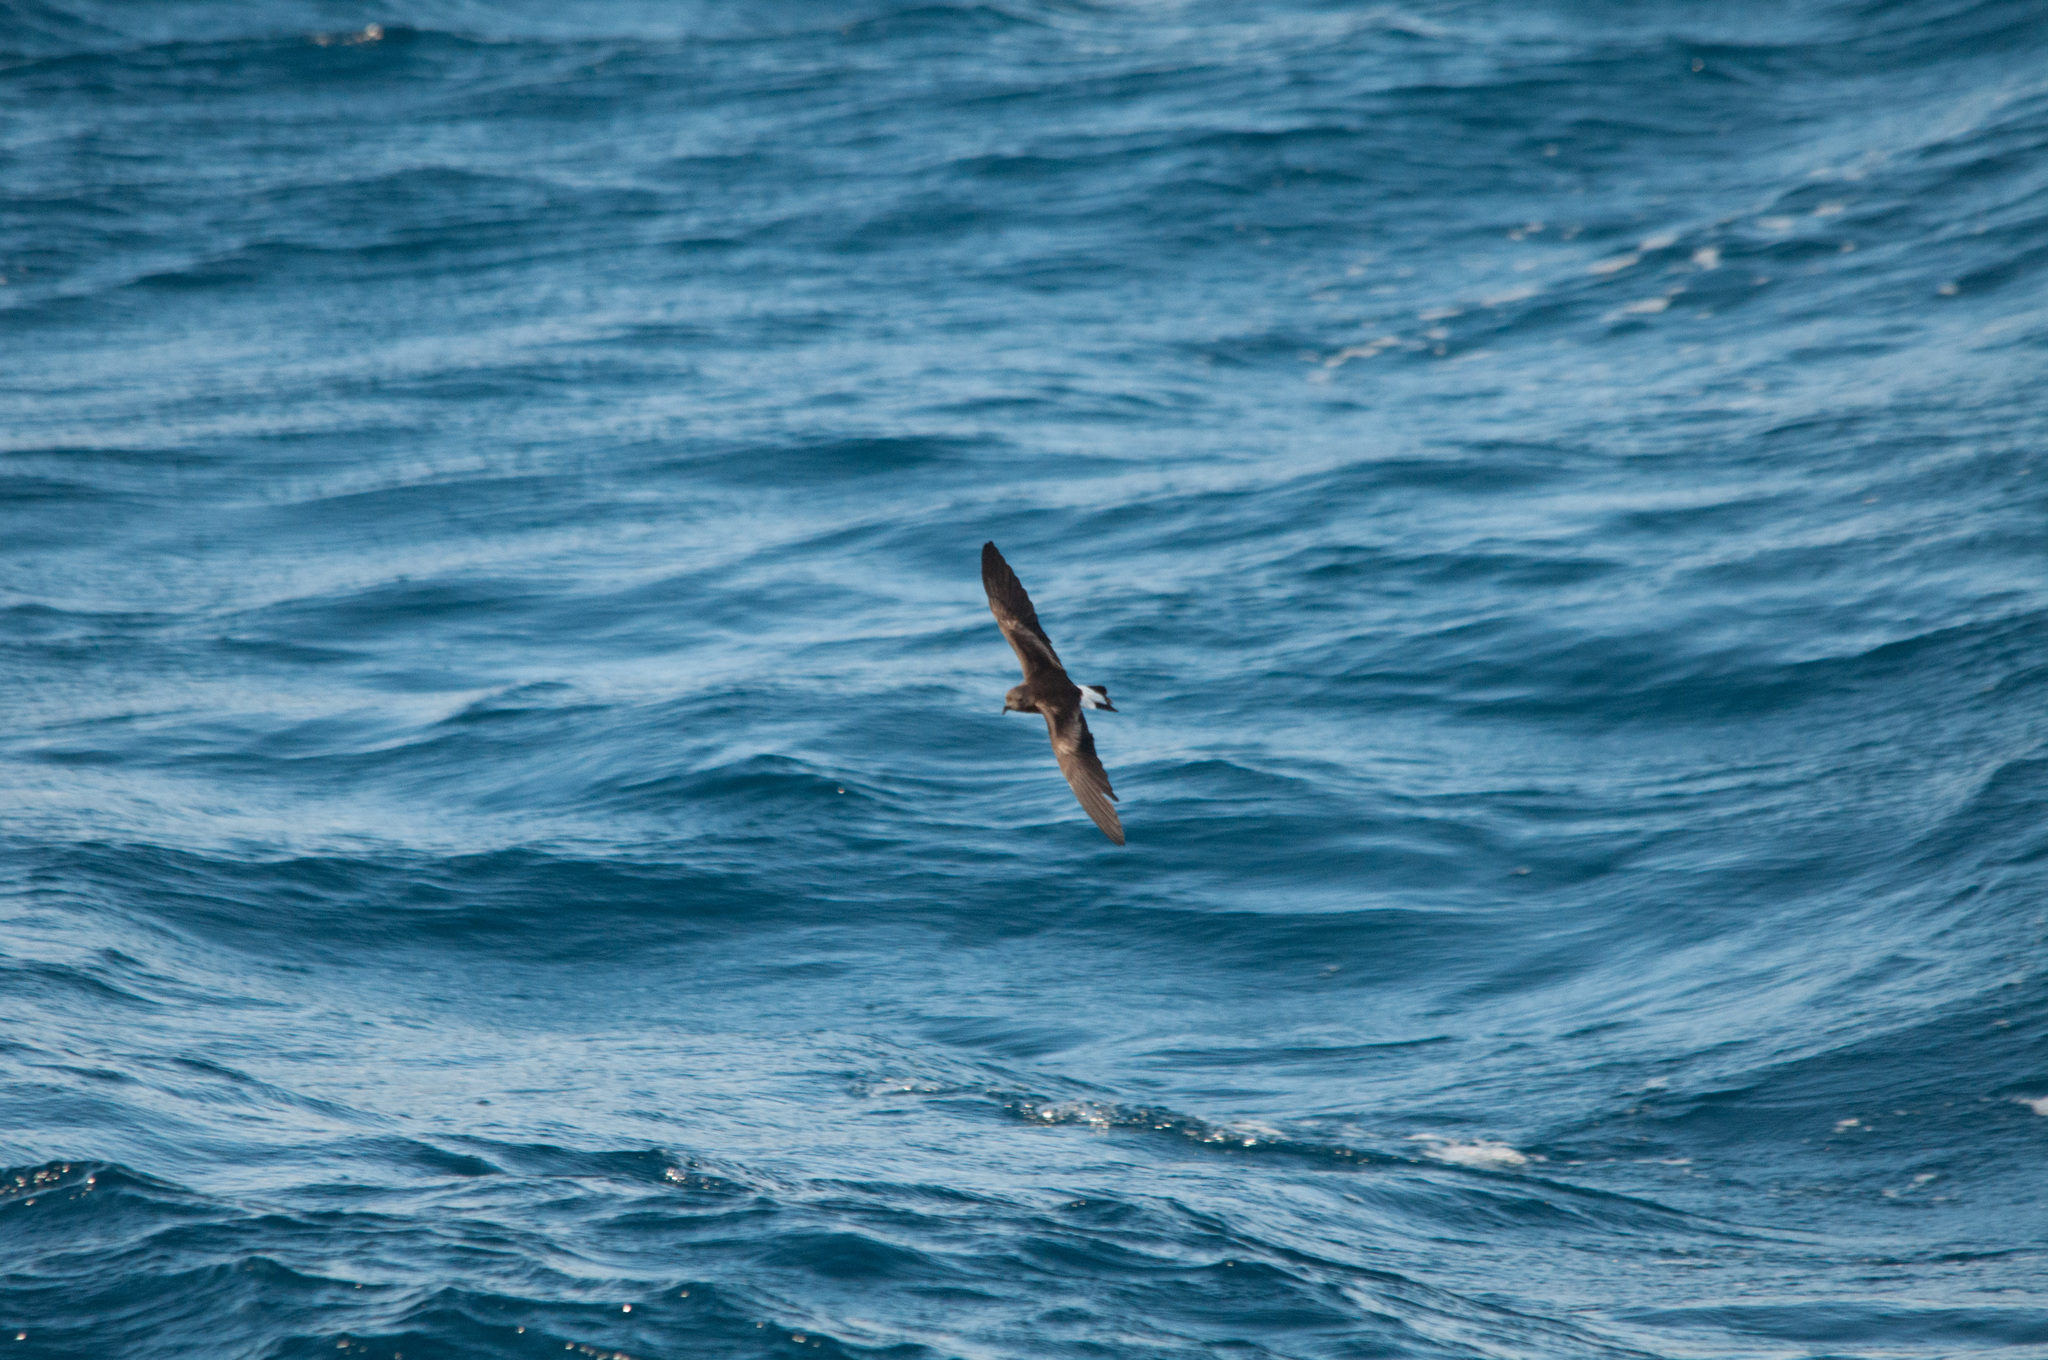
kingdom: Animalia
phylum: Chordata
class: Aves
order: Procellariiformes
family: Hydrobatidae
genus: Oceanodroma
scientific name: Oceanodroma tethys
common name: Wedge-rumped storm-petrel
